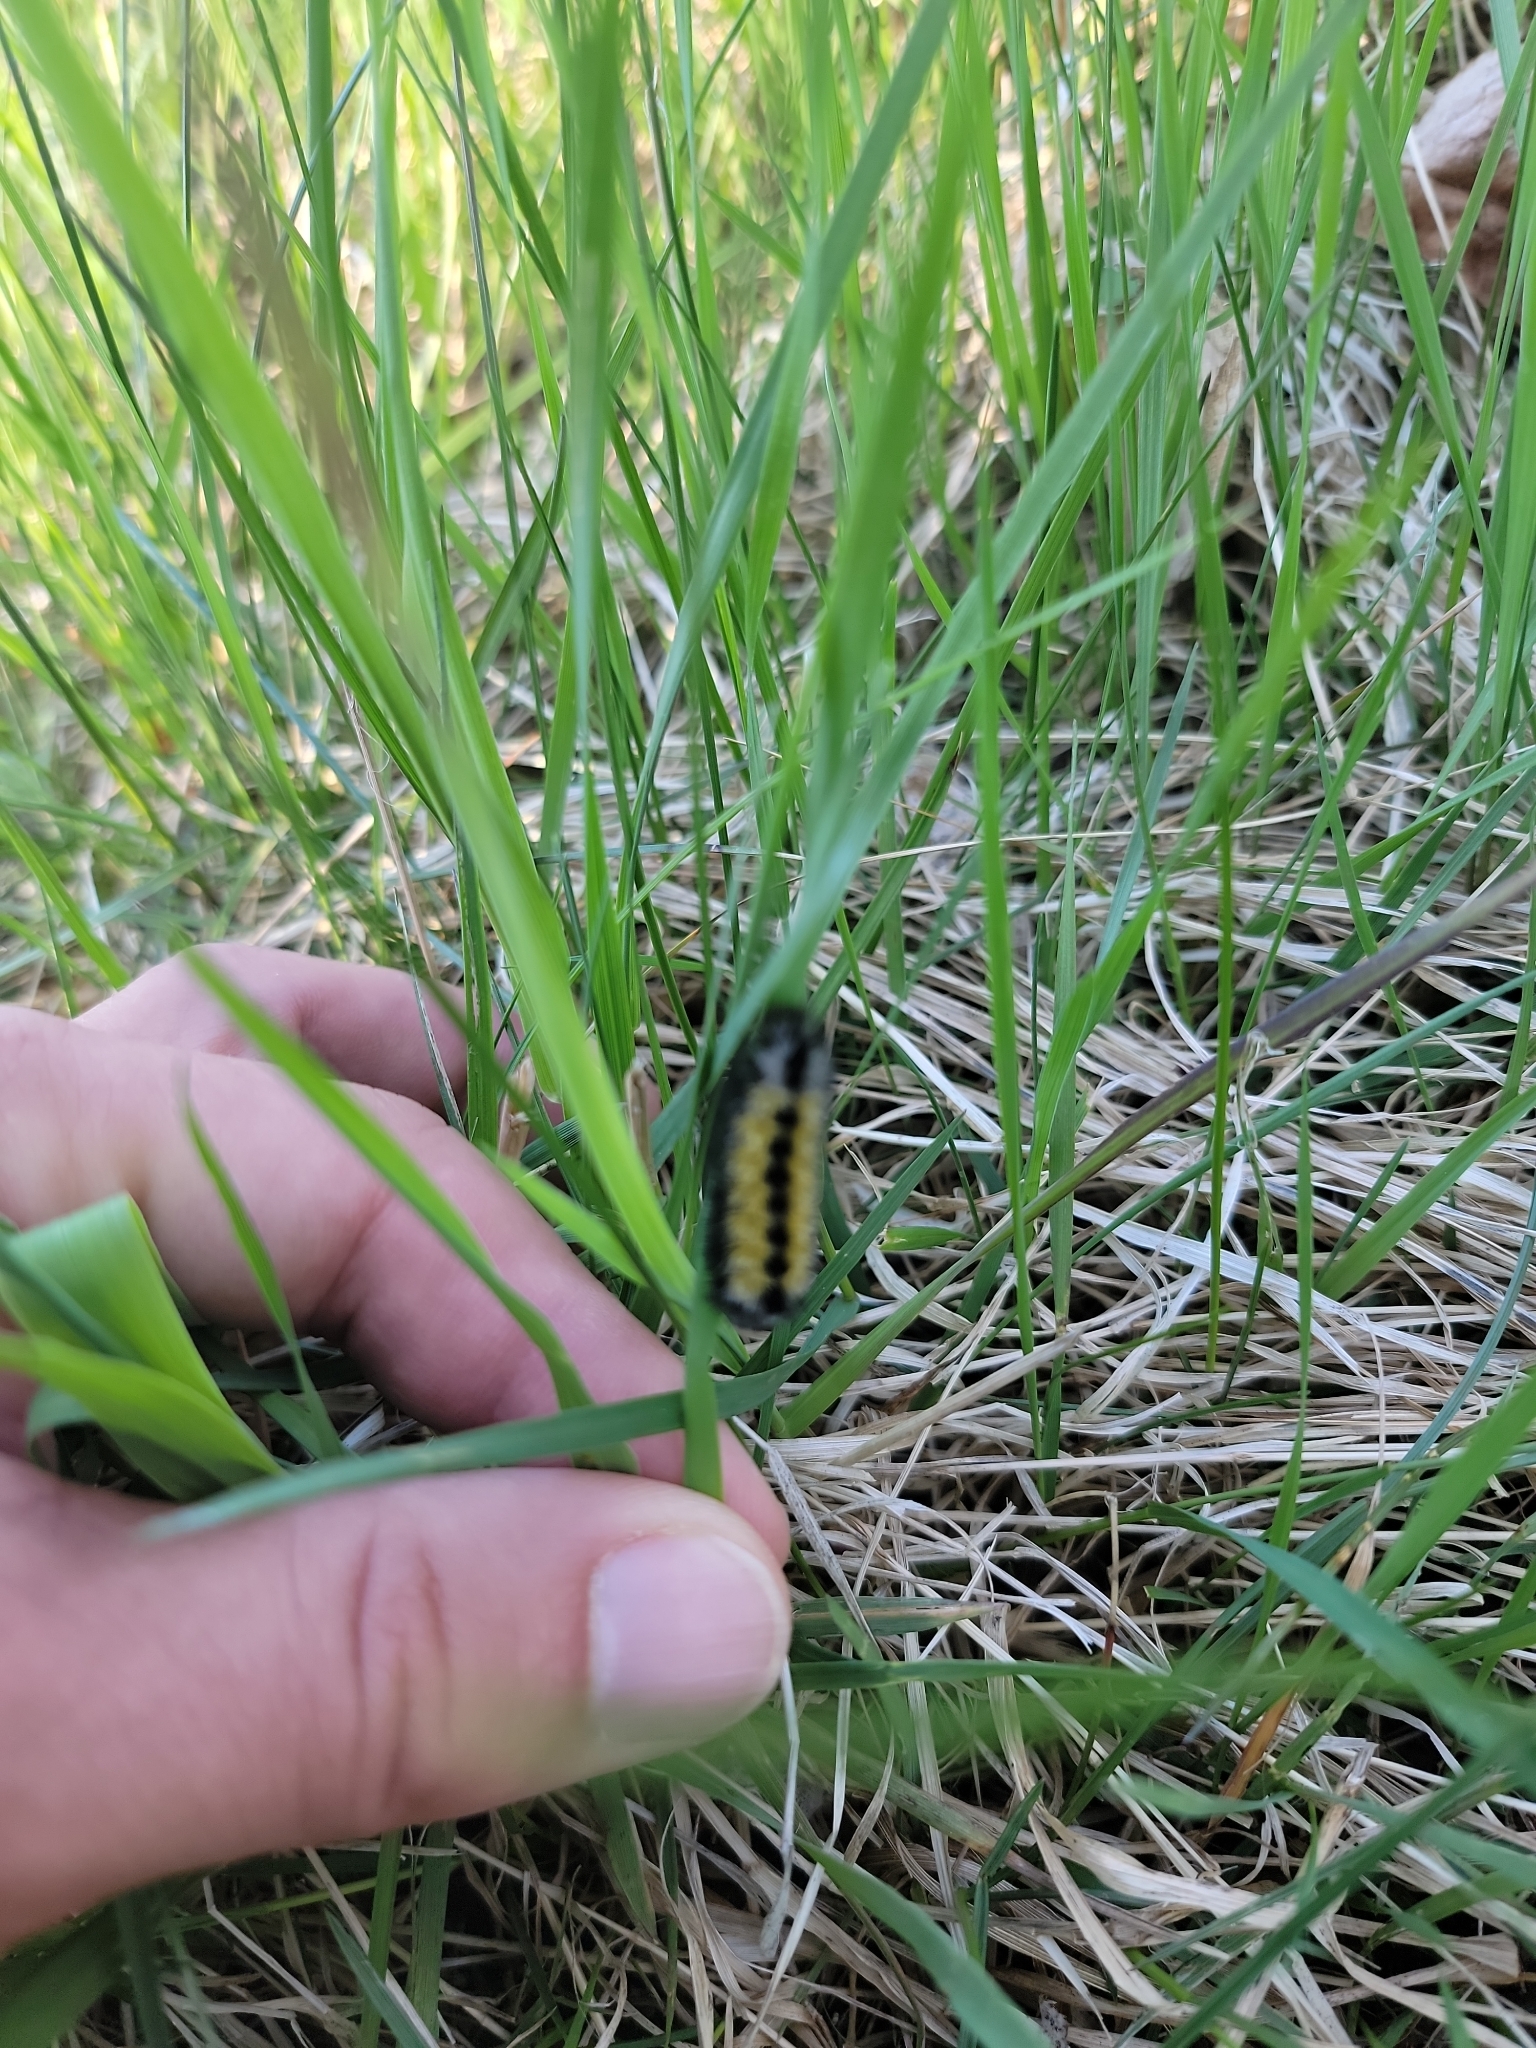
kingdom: Animalia
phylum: Arthropoda
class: Insecta
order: Lepidoptera
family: Erebidae
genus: Ctenucha
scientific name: Ctenucha virginica
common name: Virginia ctenucha moth
